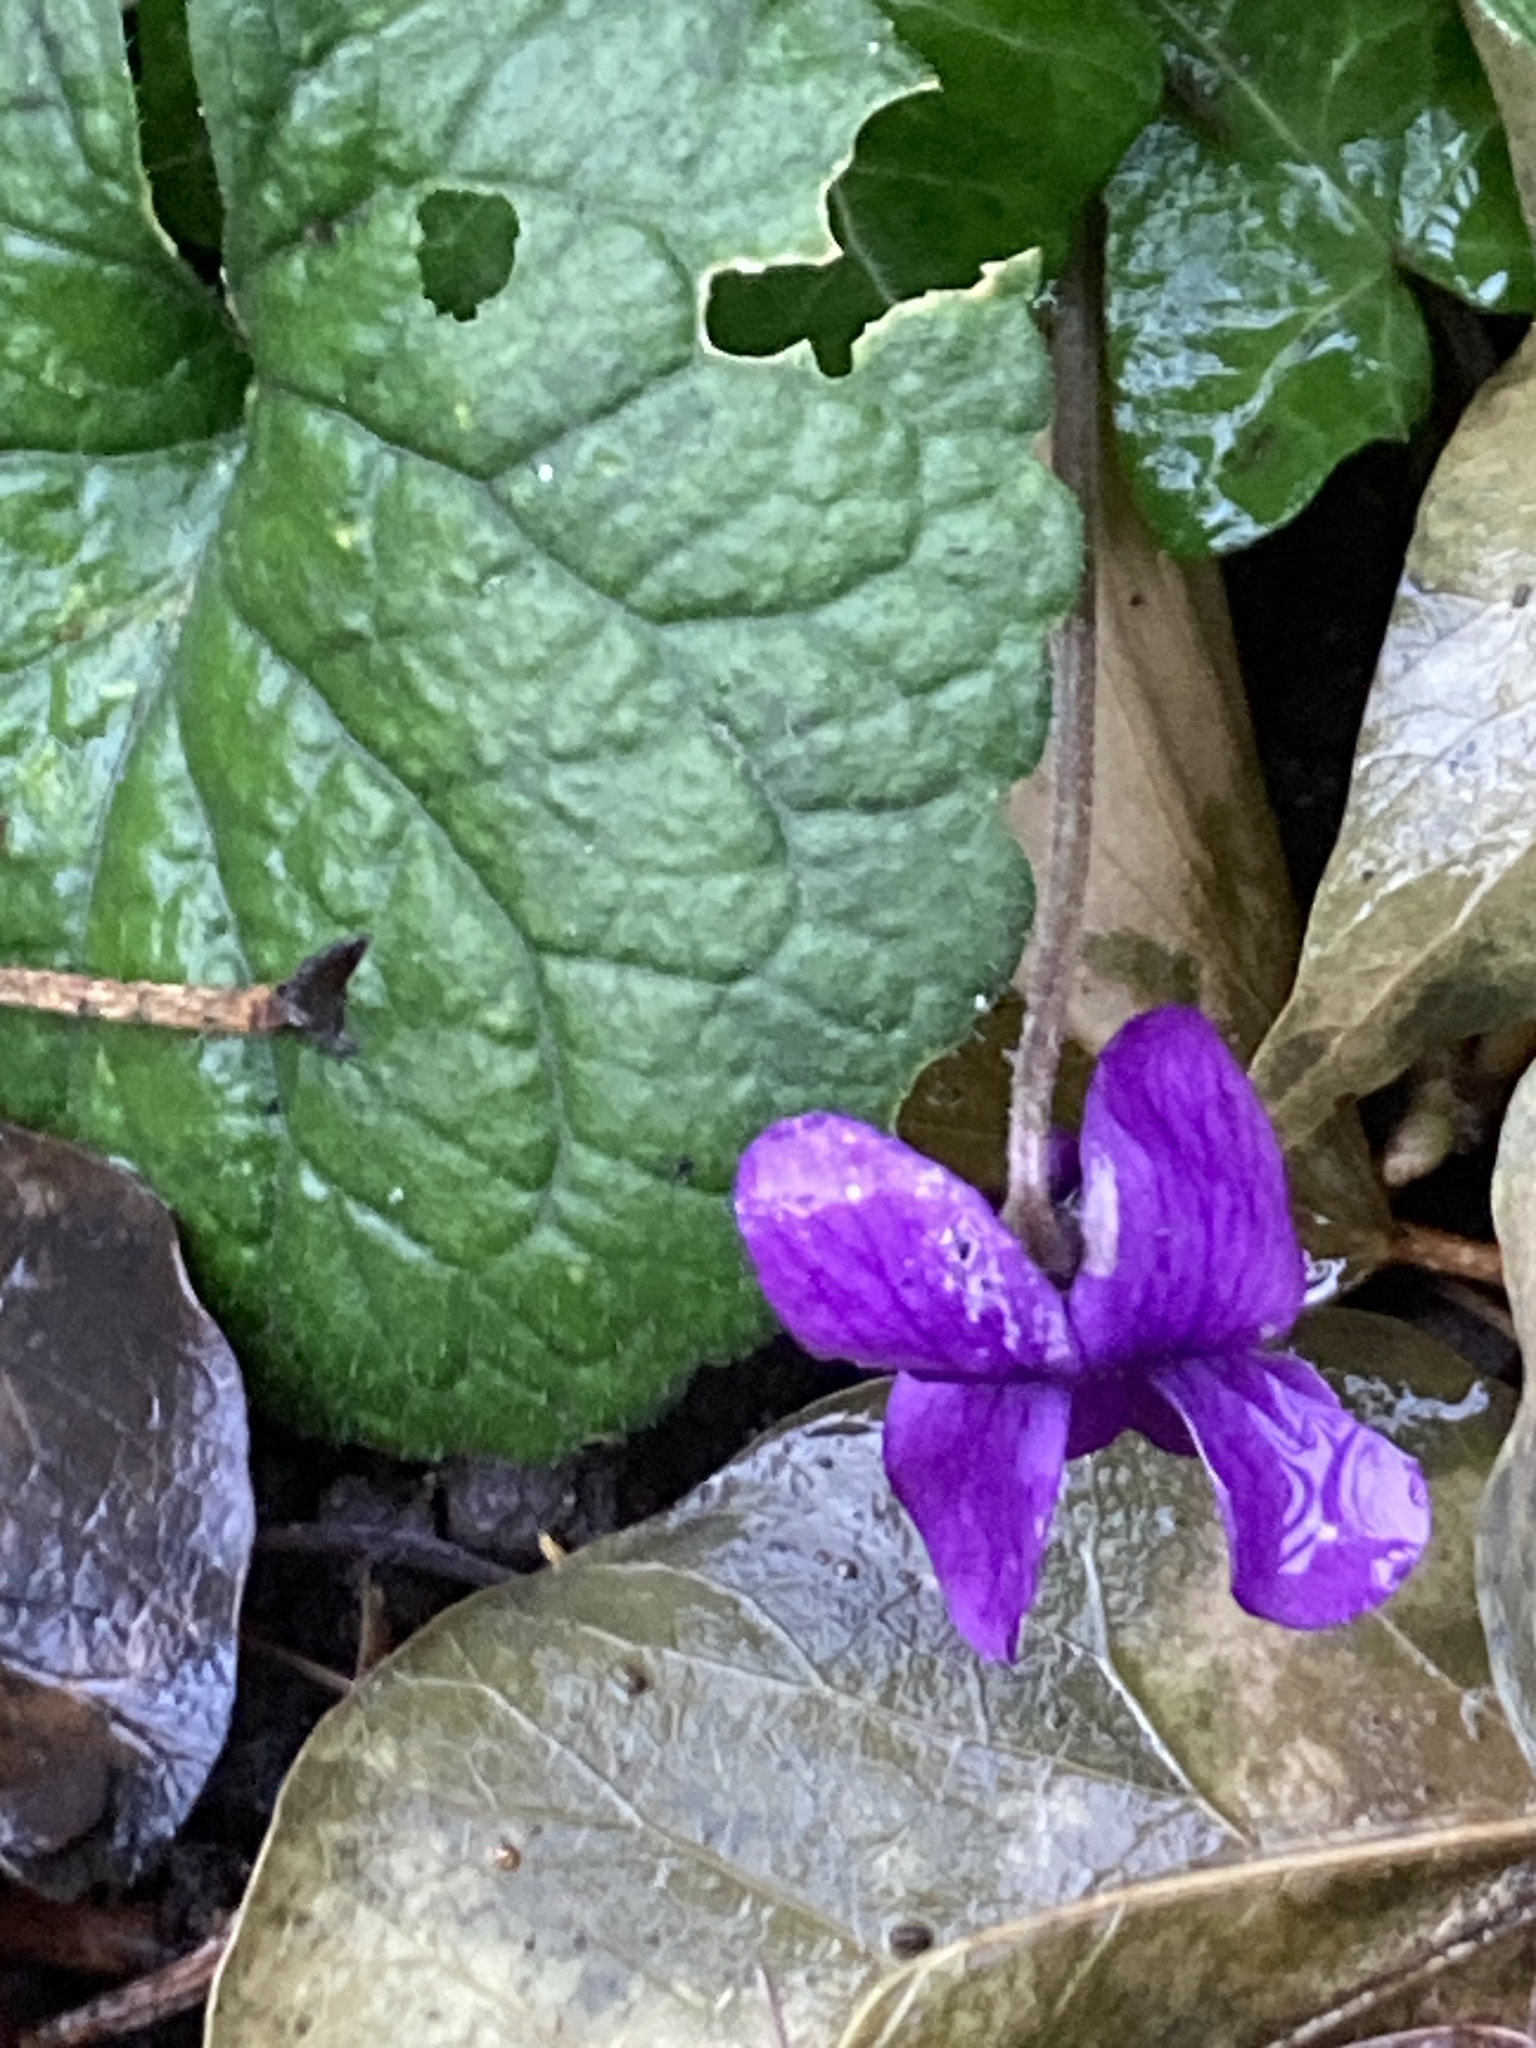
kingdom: Plantae
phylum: Tracheophyta
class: Magnoliopsida
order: Malpighiales
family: Violaceae
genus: Viola
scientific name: Viola odorata
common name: Sweet violet
